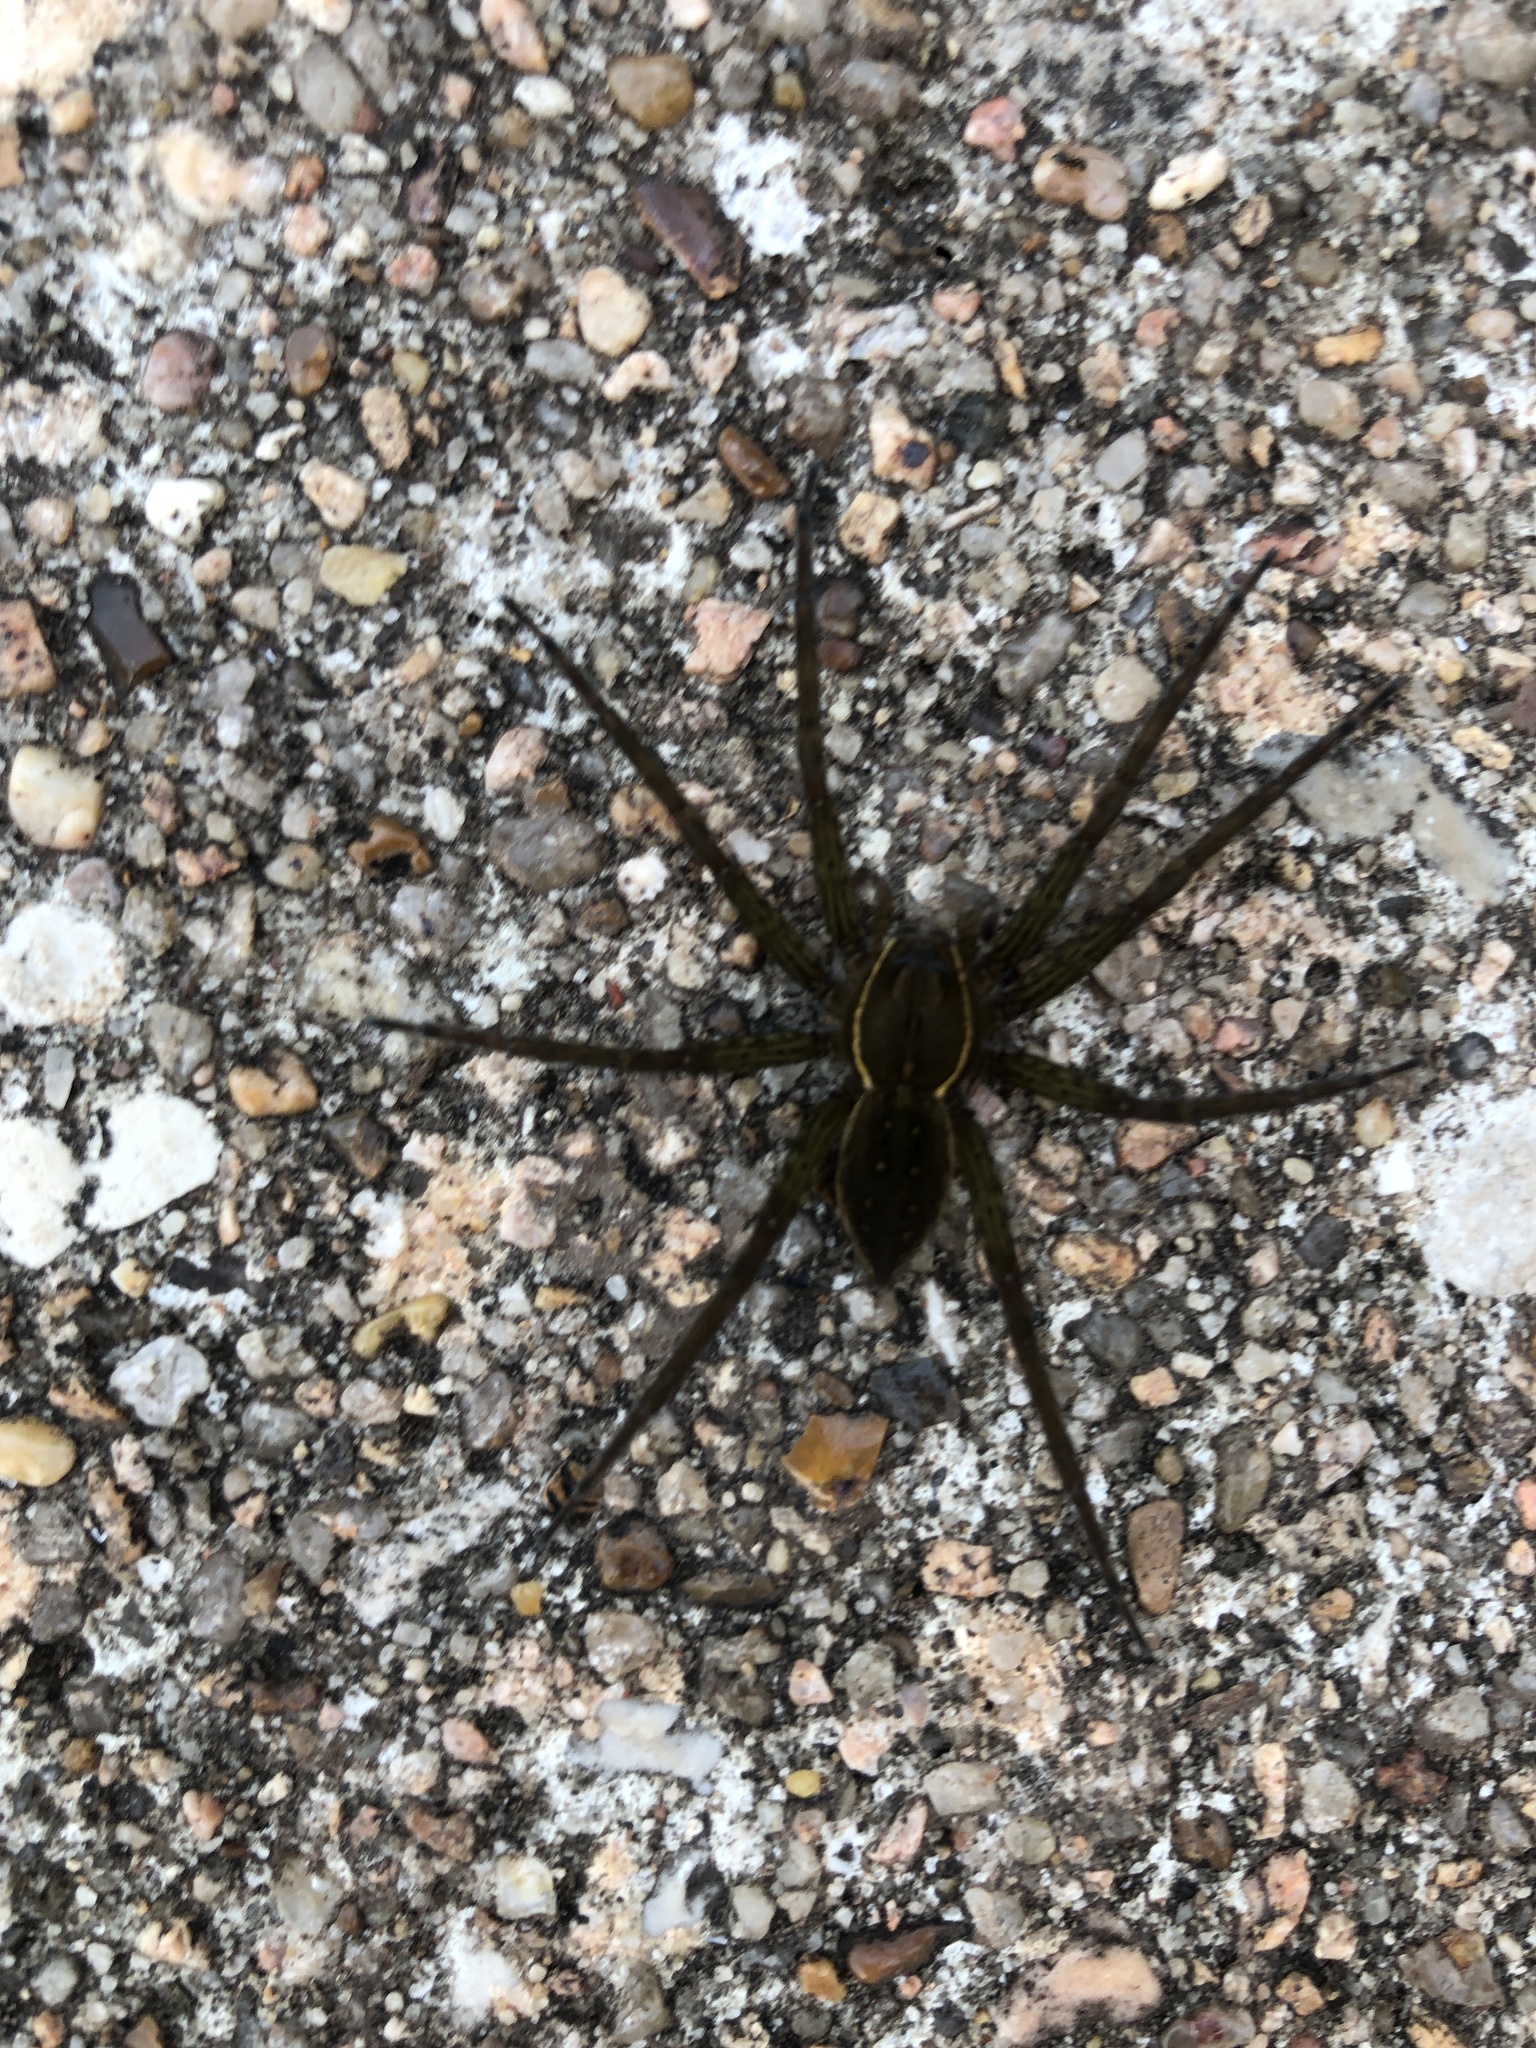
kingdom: Animalia
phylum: Arthropoda
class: Arachnida
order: Araneae
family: Pisauridae
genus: Dolomedes
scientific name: Dolomedes triton
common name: Six-spotted fishing spider
